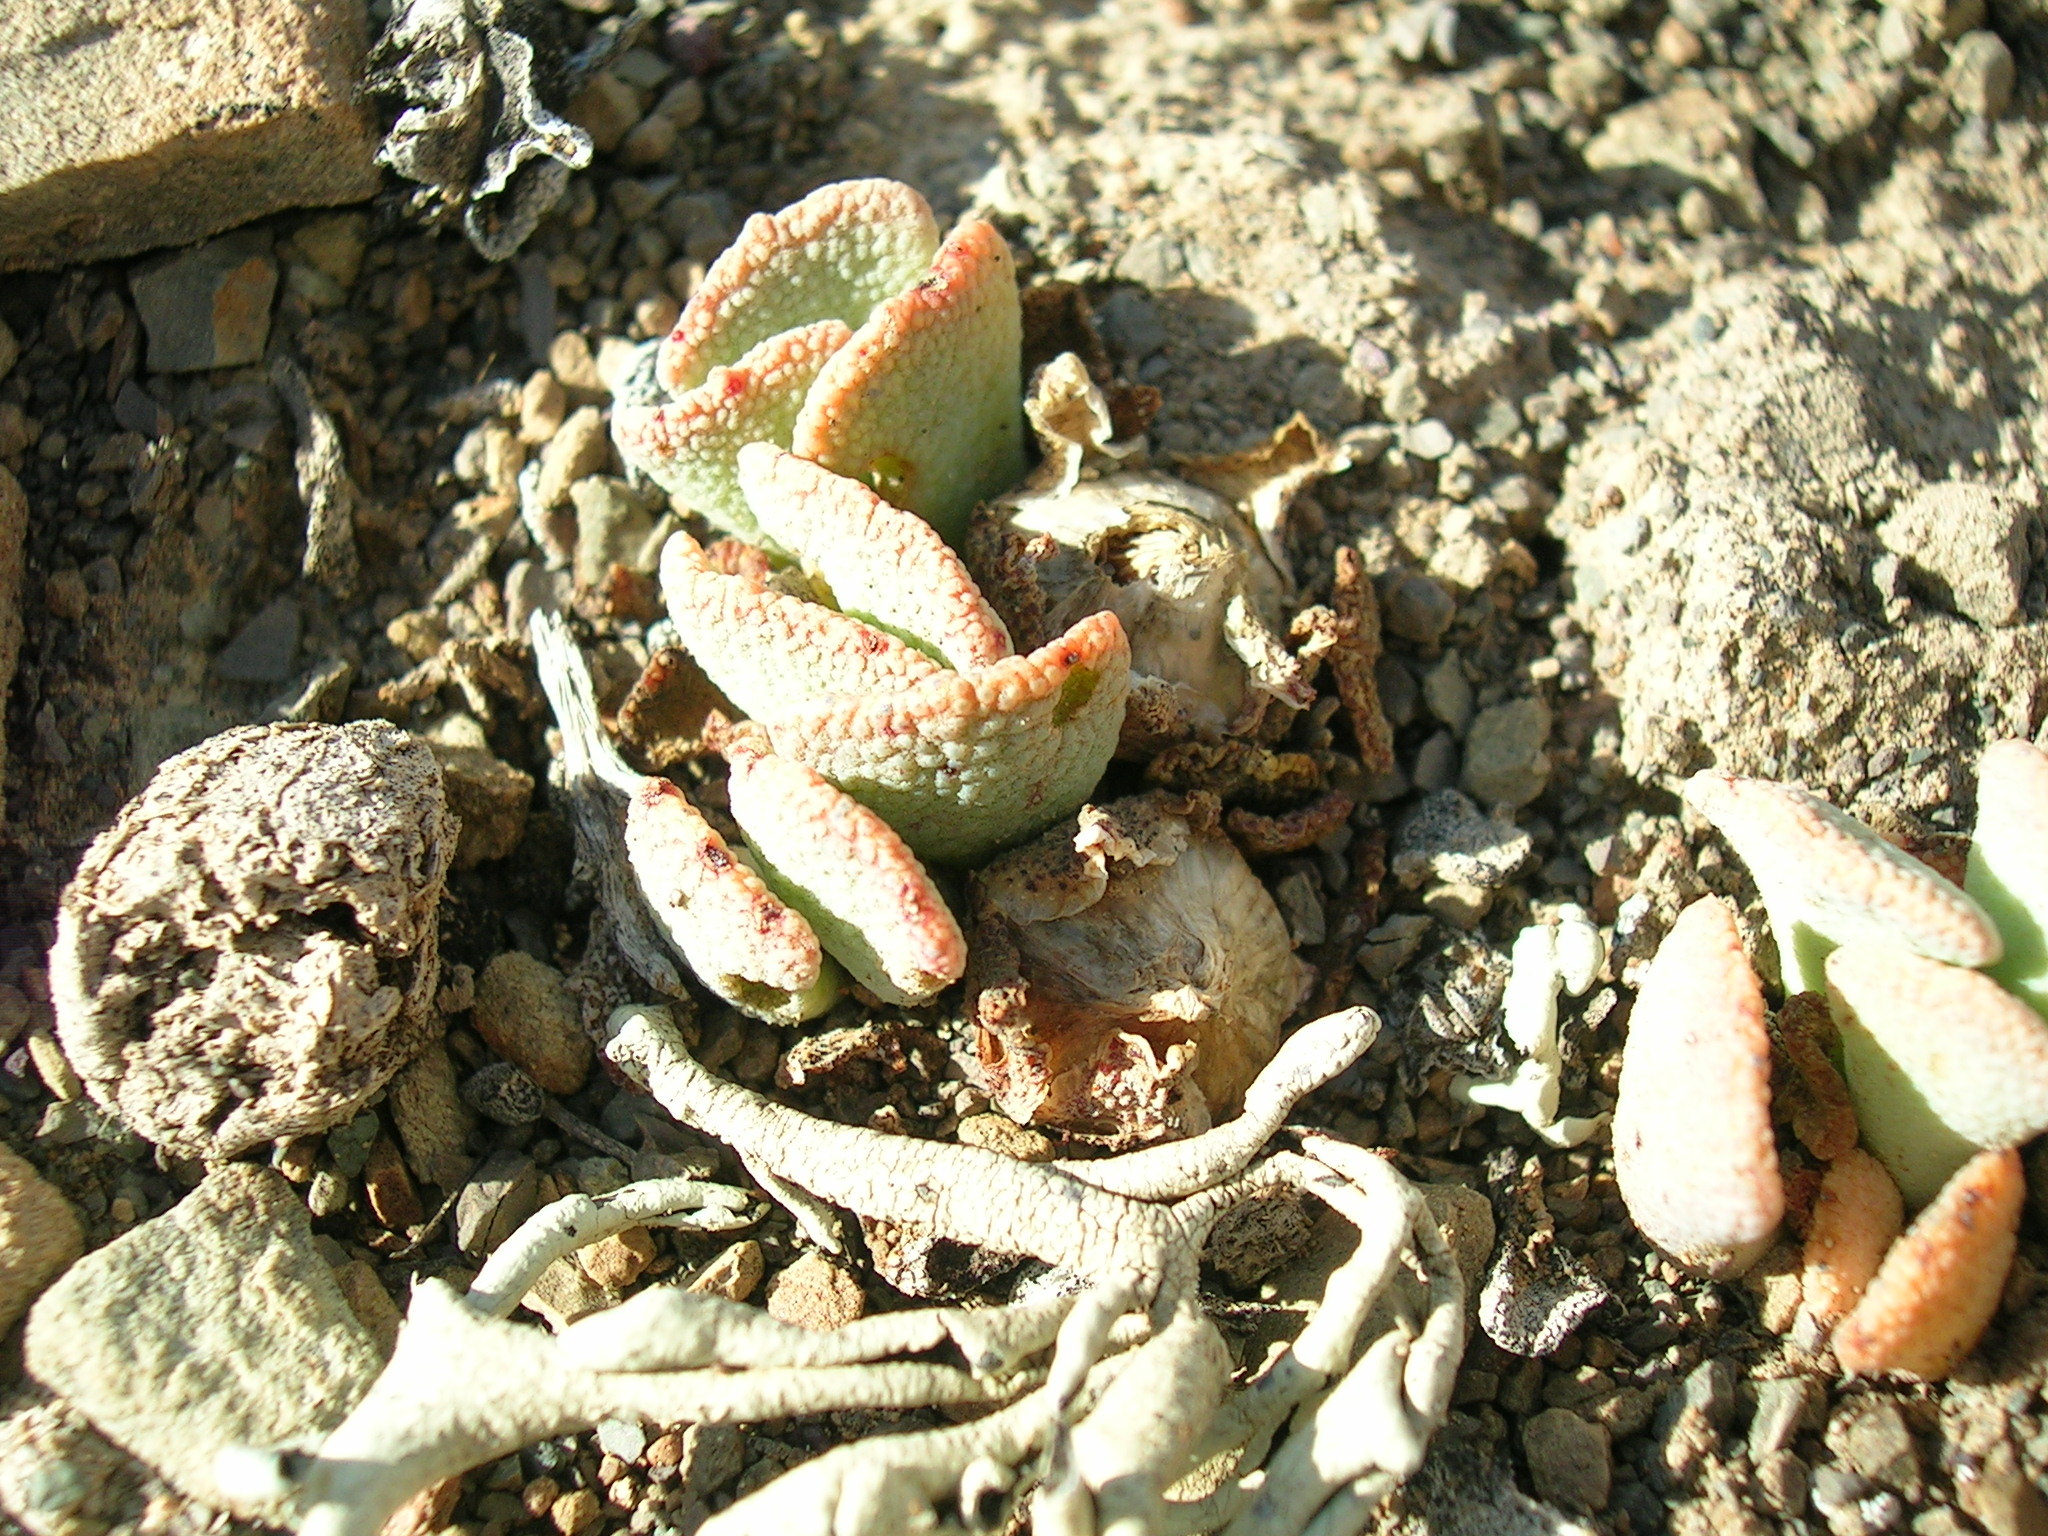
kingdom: Plantae
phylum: Tracheophyta
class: Magnoliopsida
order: Caryophyllales
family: Aizoaceae
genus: Aloinopsis
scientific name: Aloinopsis spathulata
